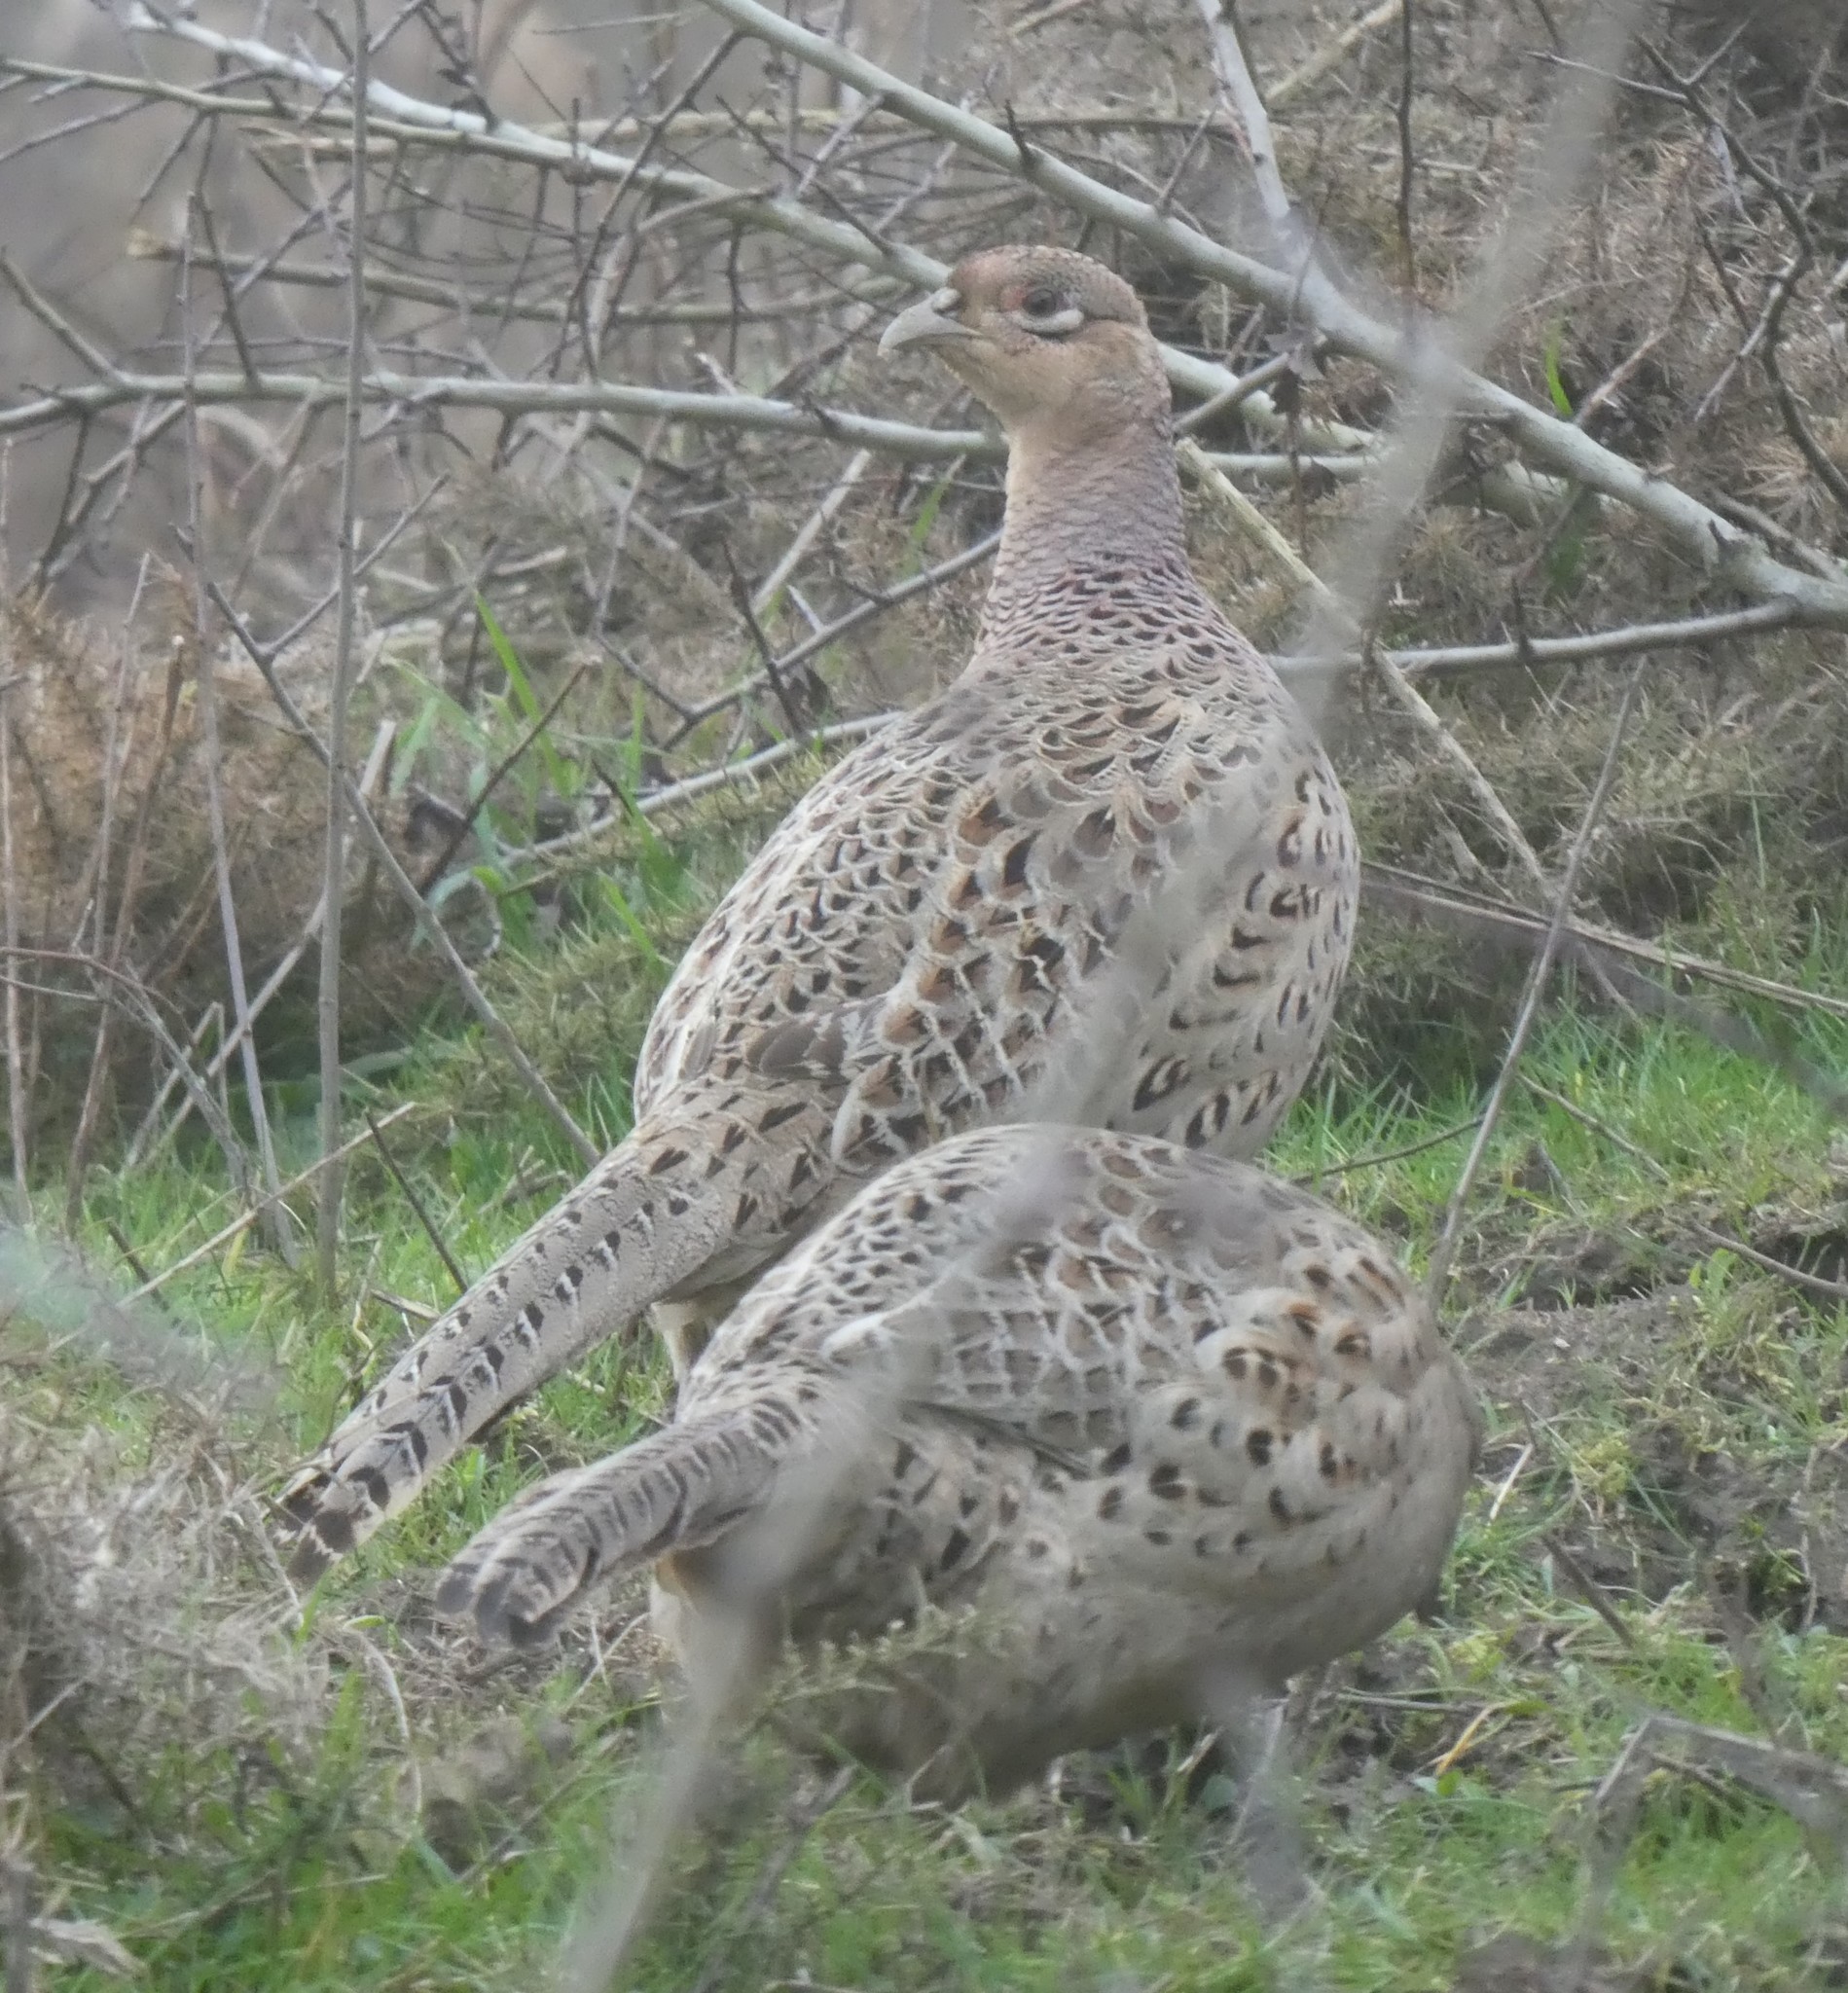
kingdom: Animalia
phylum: Chordata
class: Aves
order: Galliformes
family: Phasianidae
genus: Phasianus
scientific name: Phasianus colchicus
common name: Common pheasant
